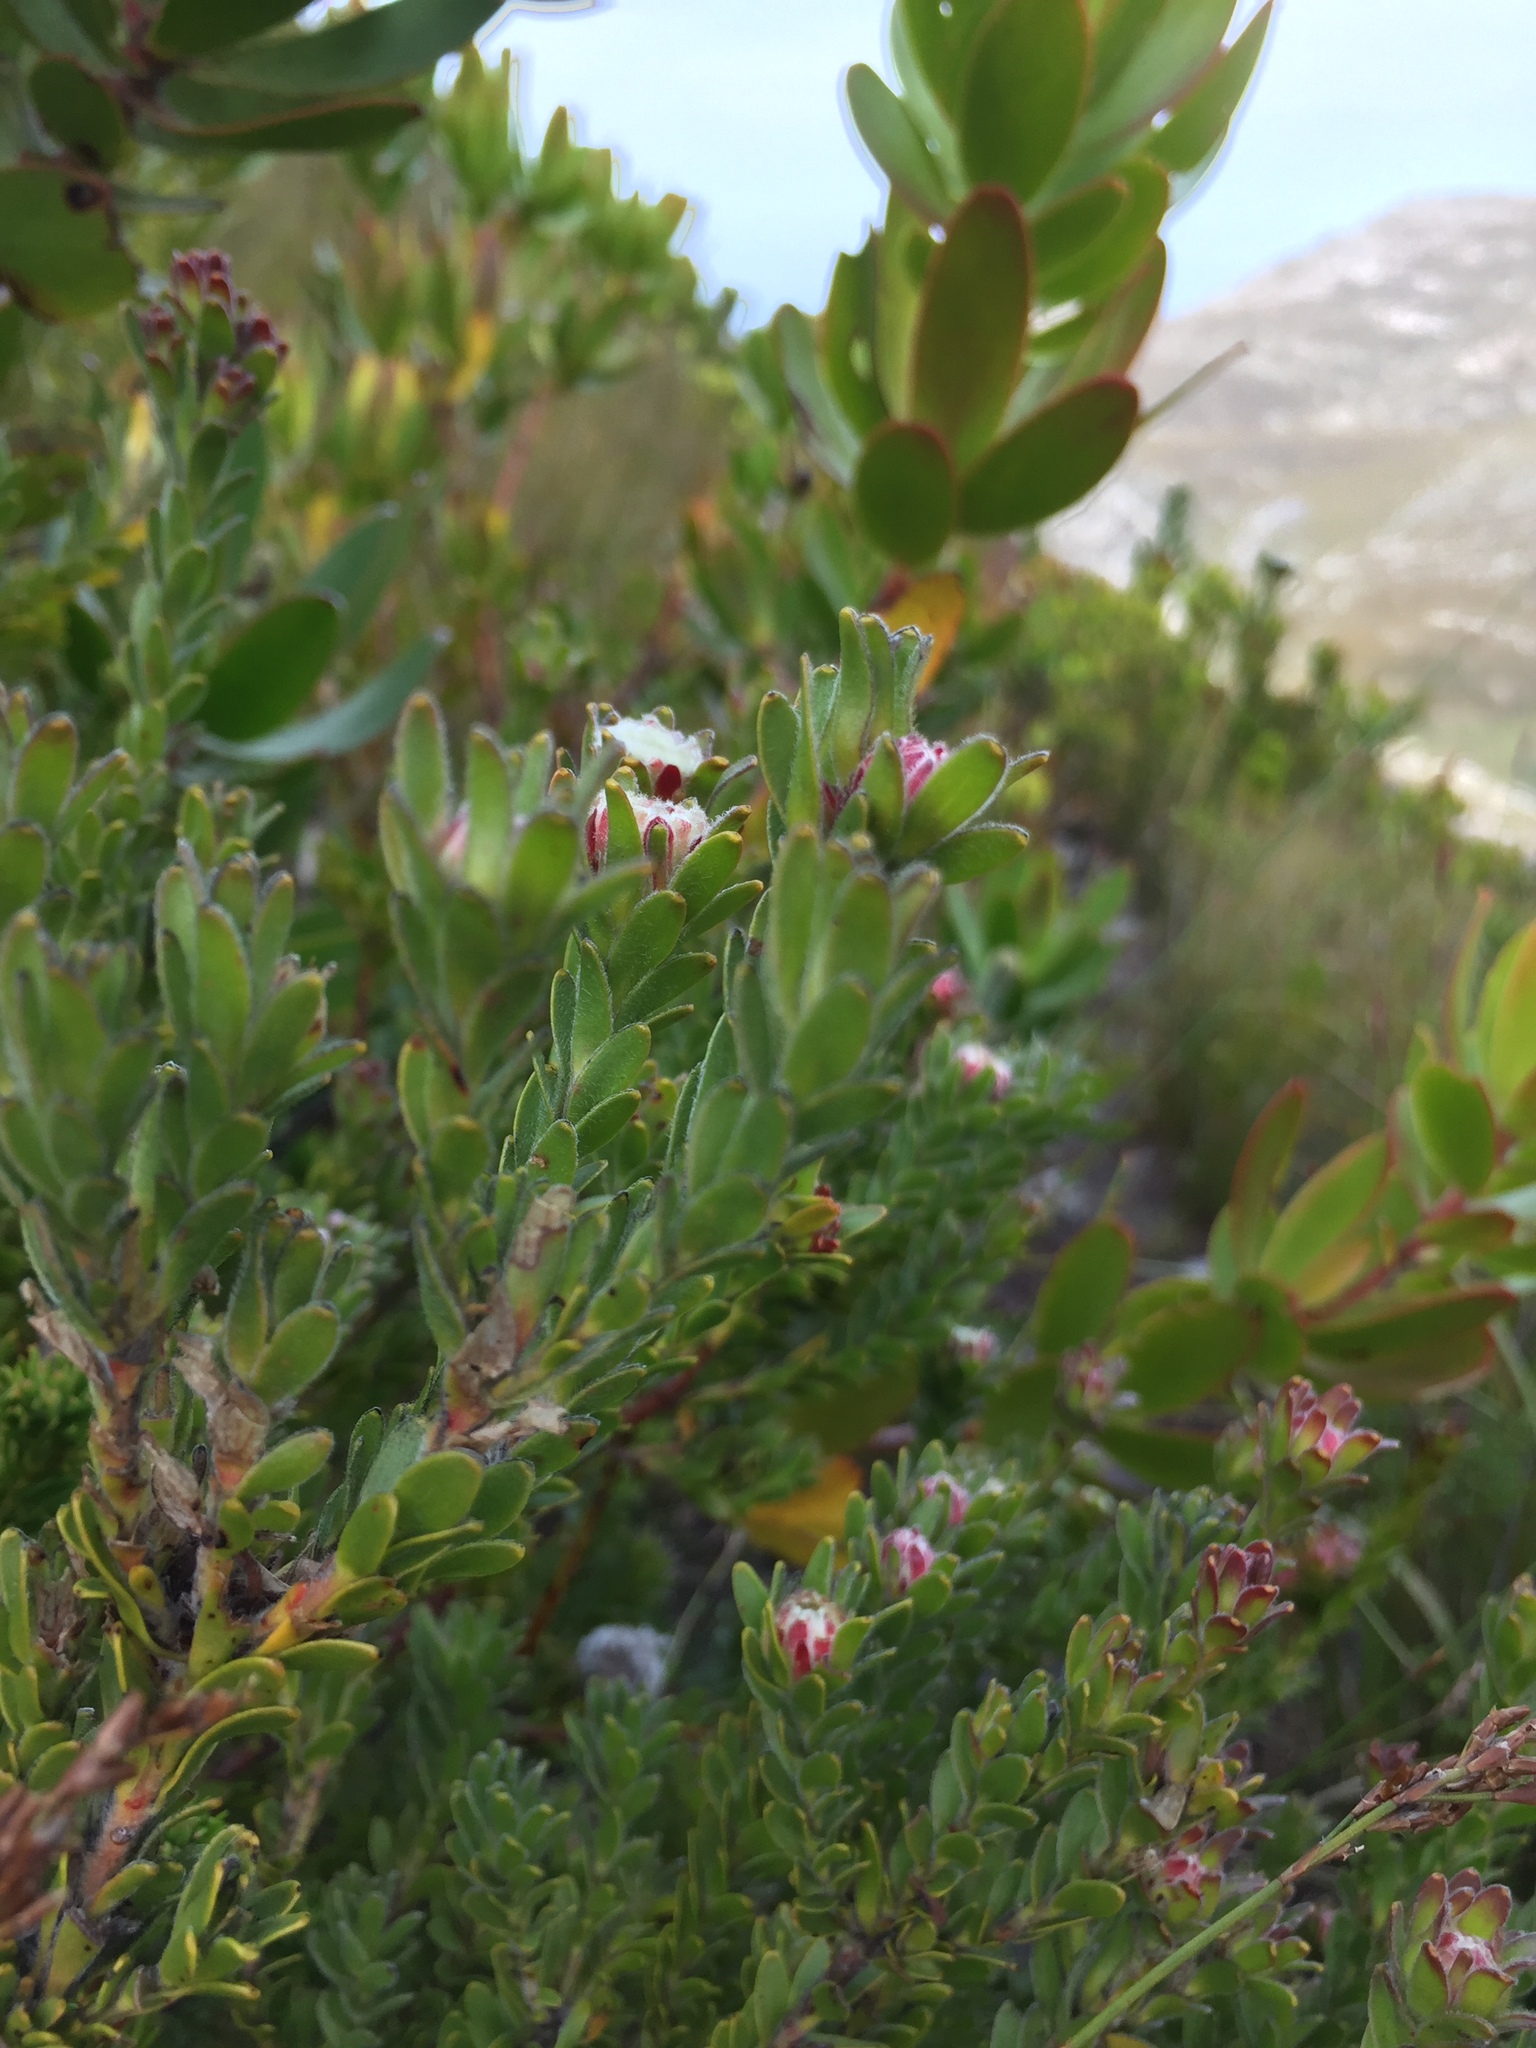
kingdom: Plantae
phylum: Tracheophyta
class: Magnoliopsida
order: Proteales
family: Proteaceae
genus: Diastella
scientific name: Diastella thymelaeoides
